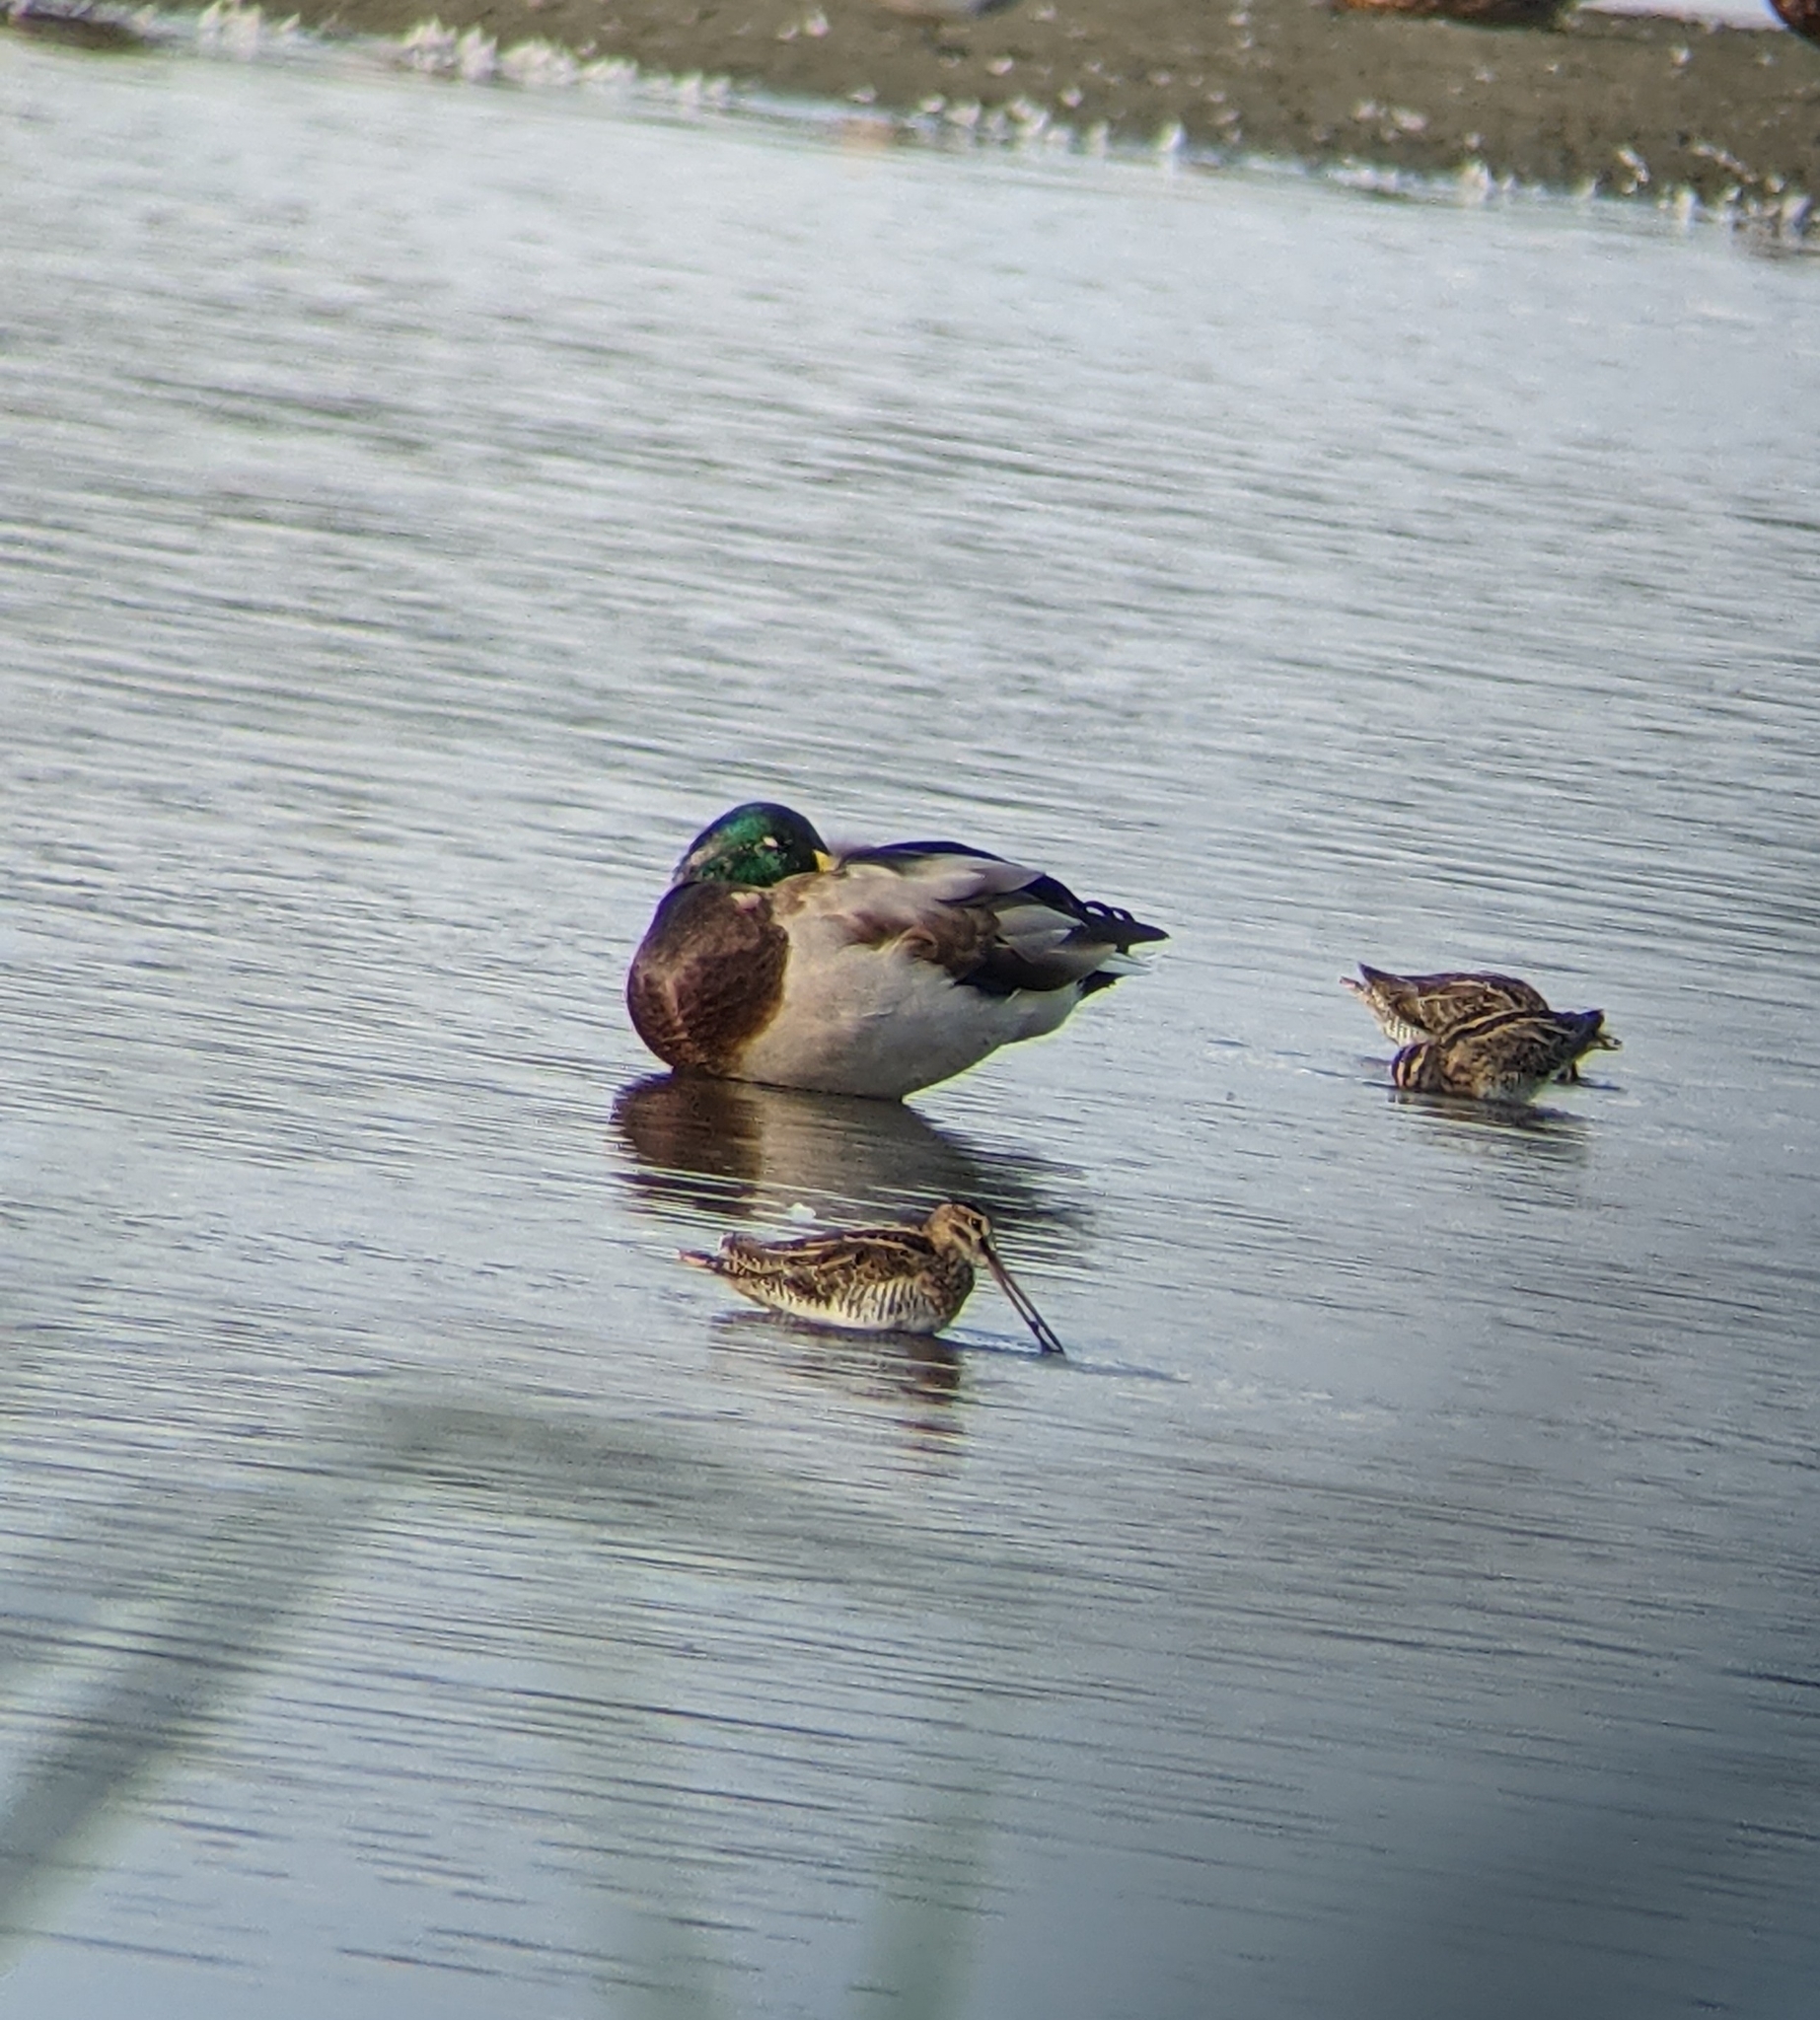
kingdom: Animalia
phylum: Chordata
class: Aves
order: Anseriformes
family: Anatidae
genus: Anas
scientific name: Anas platyrhynchos
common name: Mallard
